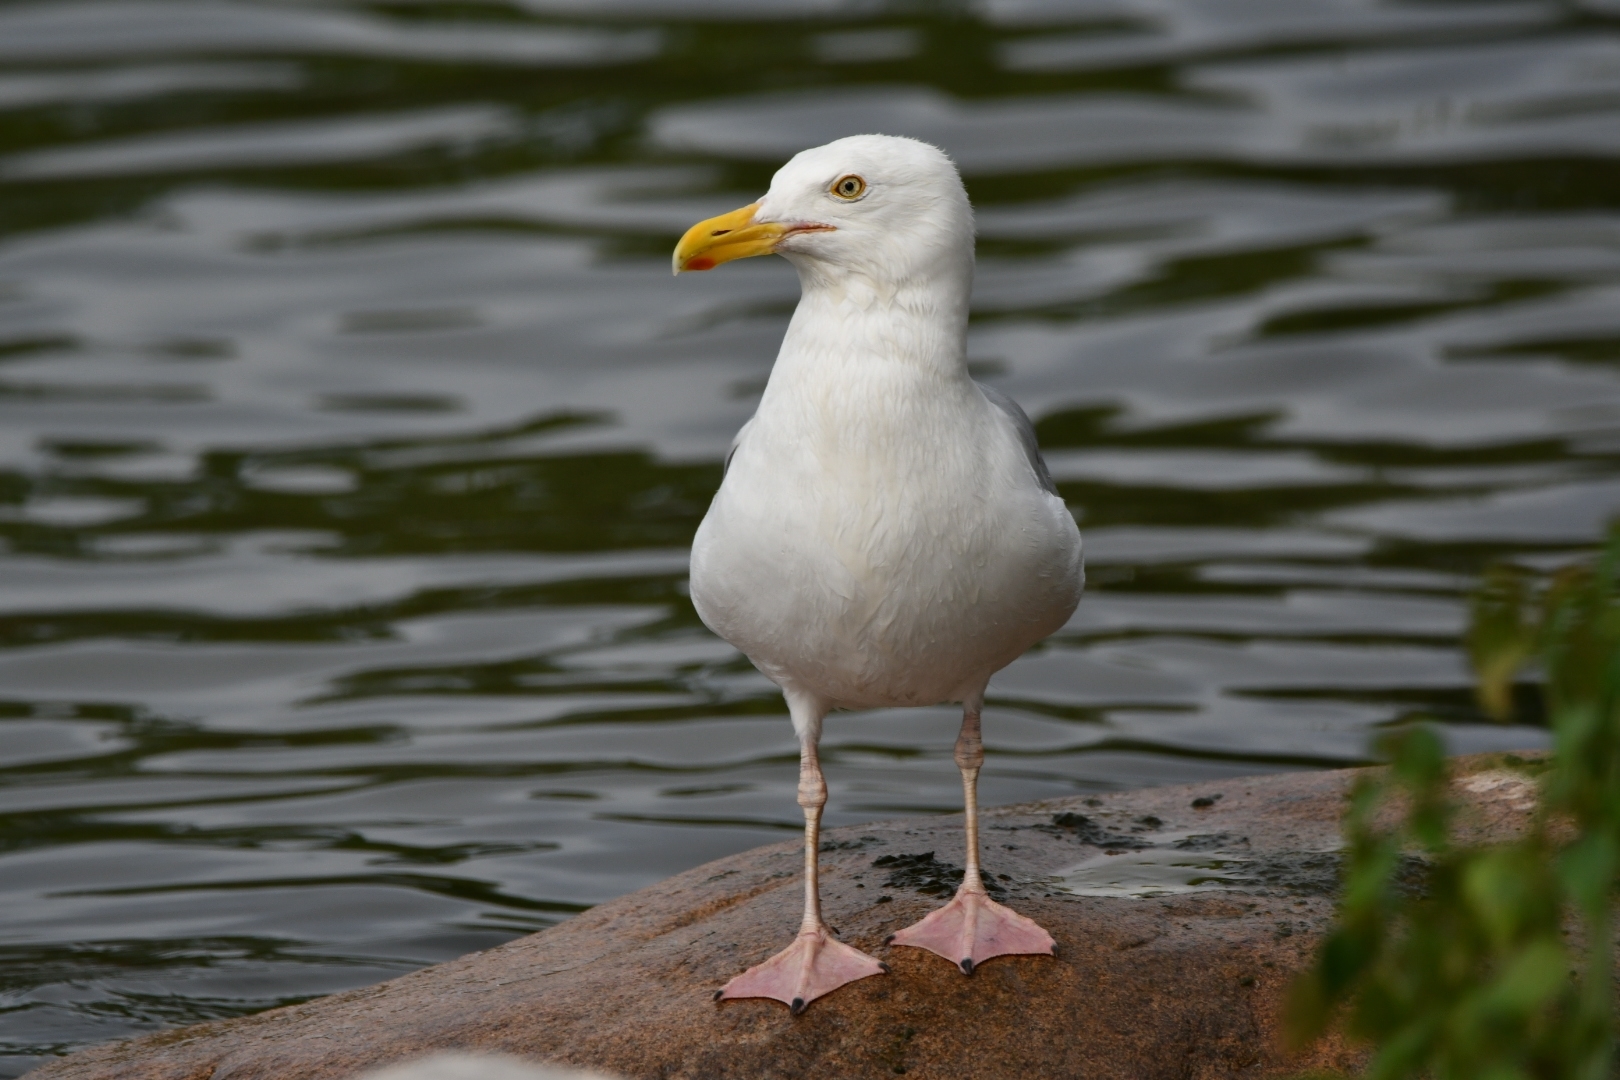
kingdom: Animalia
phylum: Chordata
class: Aves
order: Charadriiformes
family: Laridae
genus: Larus
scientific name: Larus argentatus
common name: Herring gull
